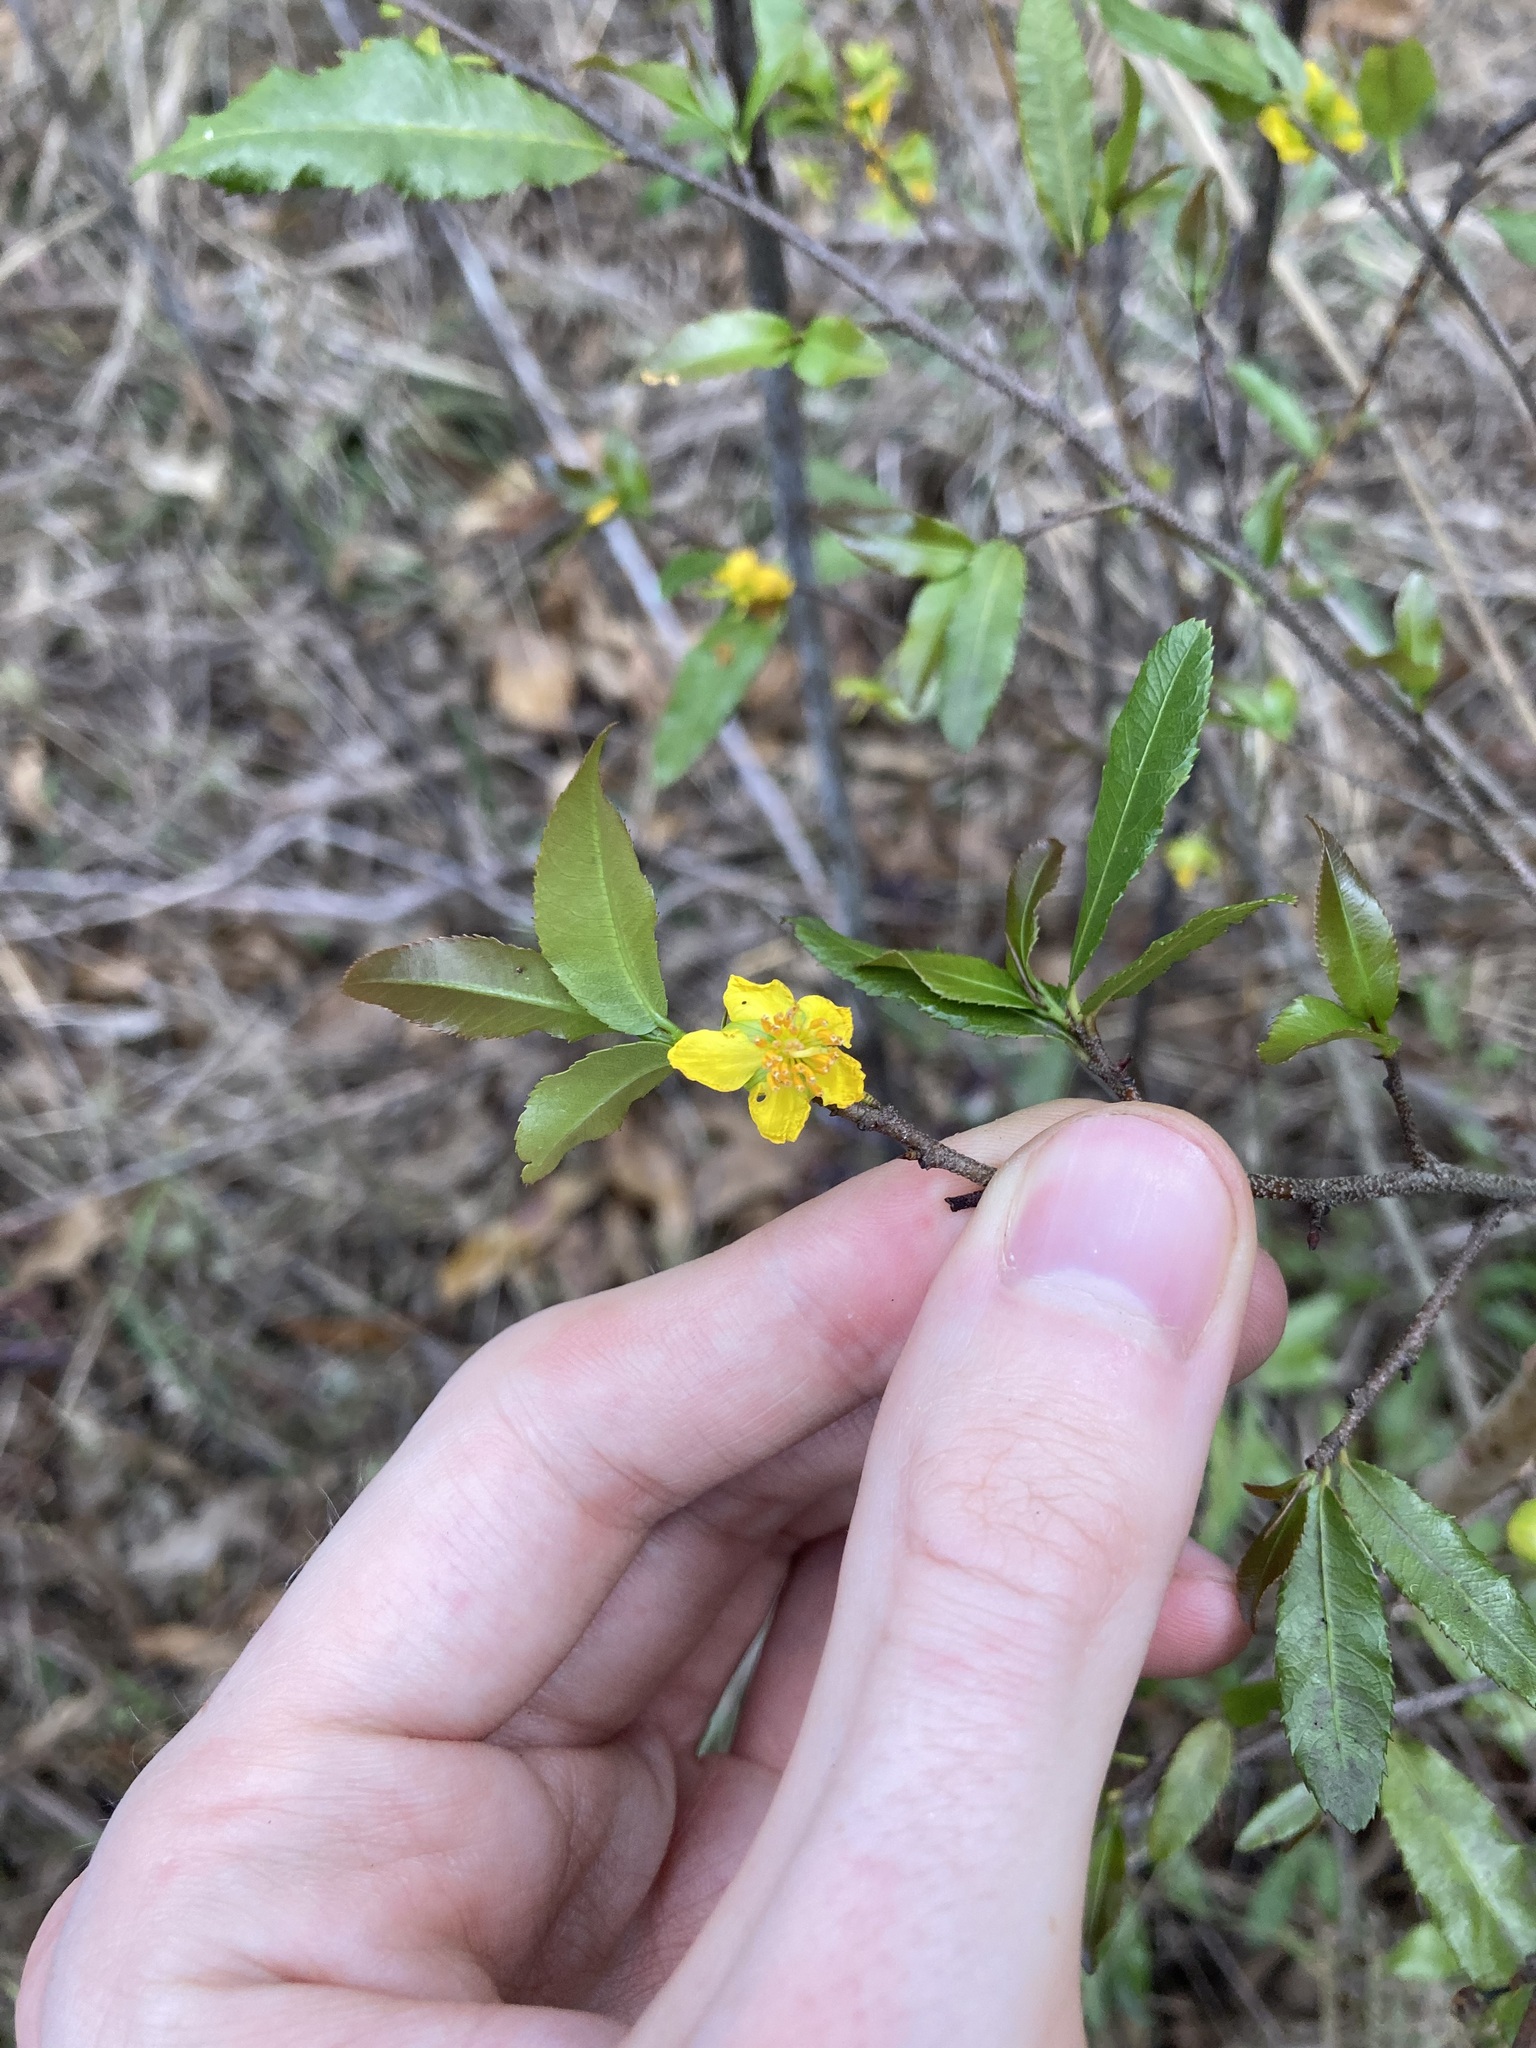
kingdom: Plantae
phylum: Tracheophyta
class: Magnoliopsida
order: Malpighiales
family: Ochnaceae
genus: Ochna
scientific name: Ochna serrulata
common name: Mickey mouse plant
